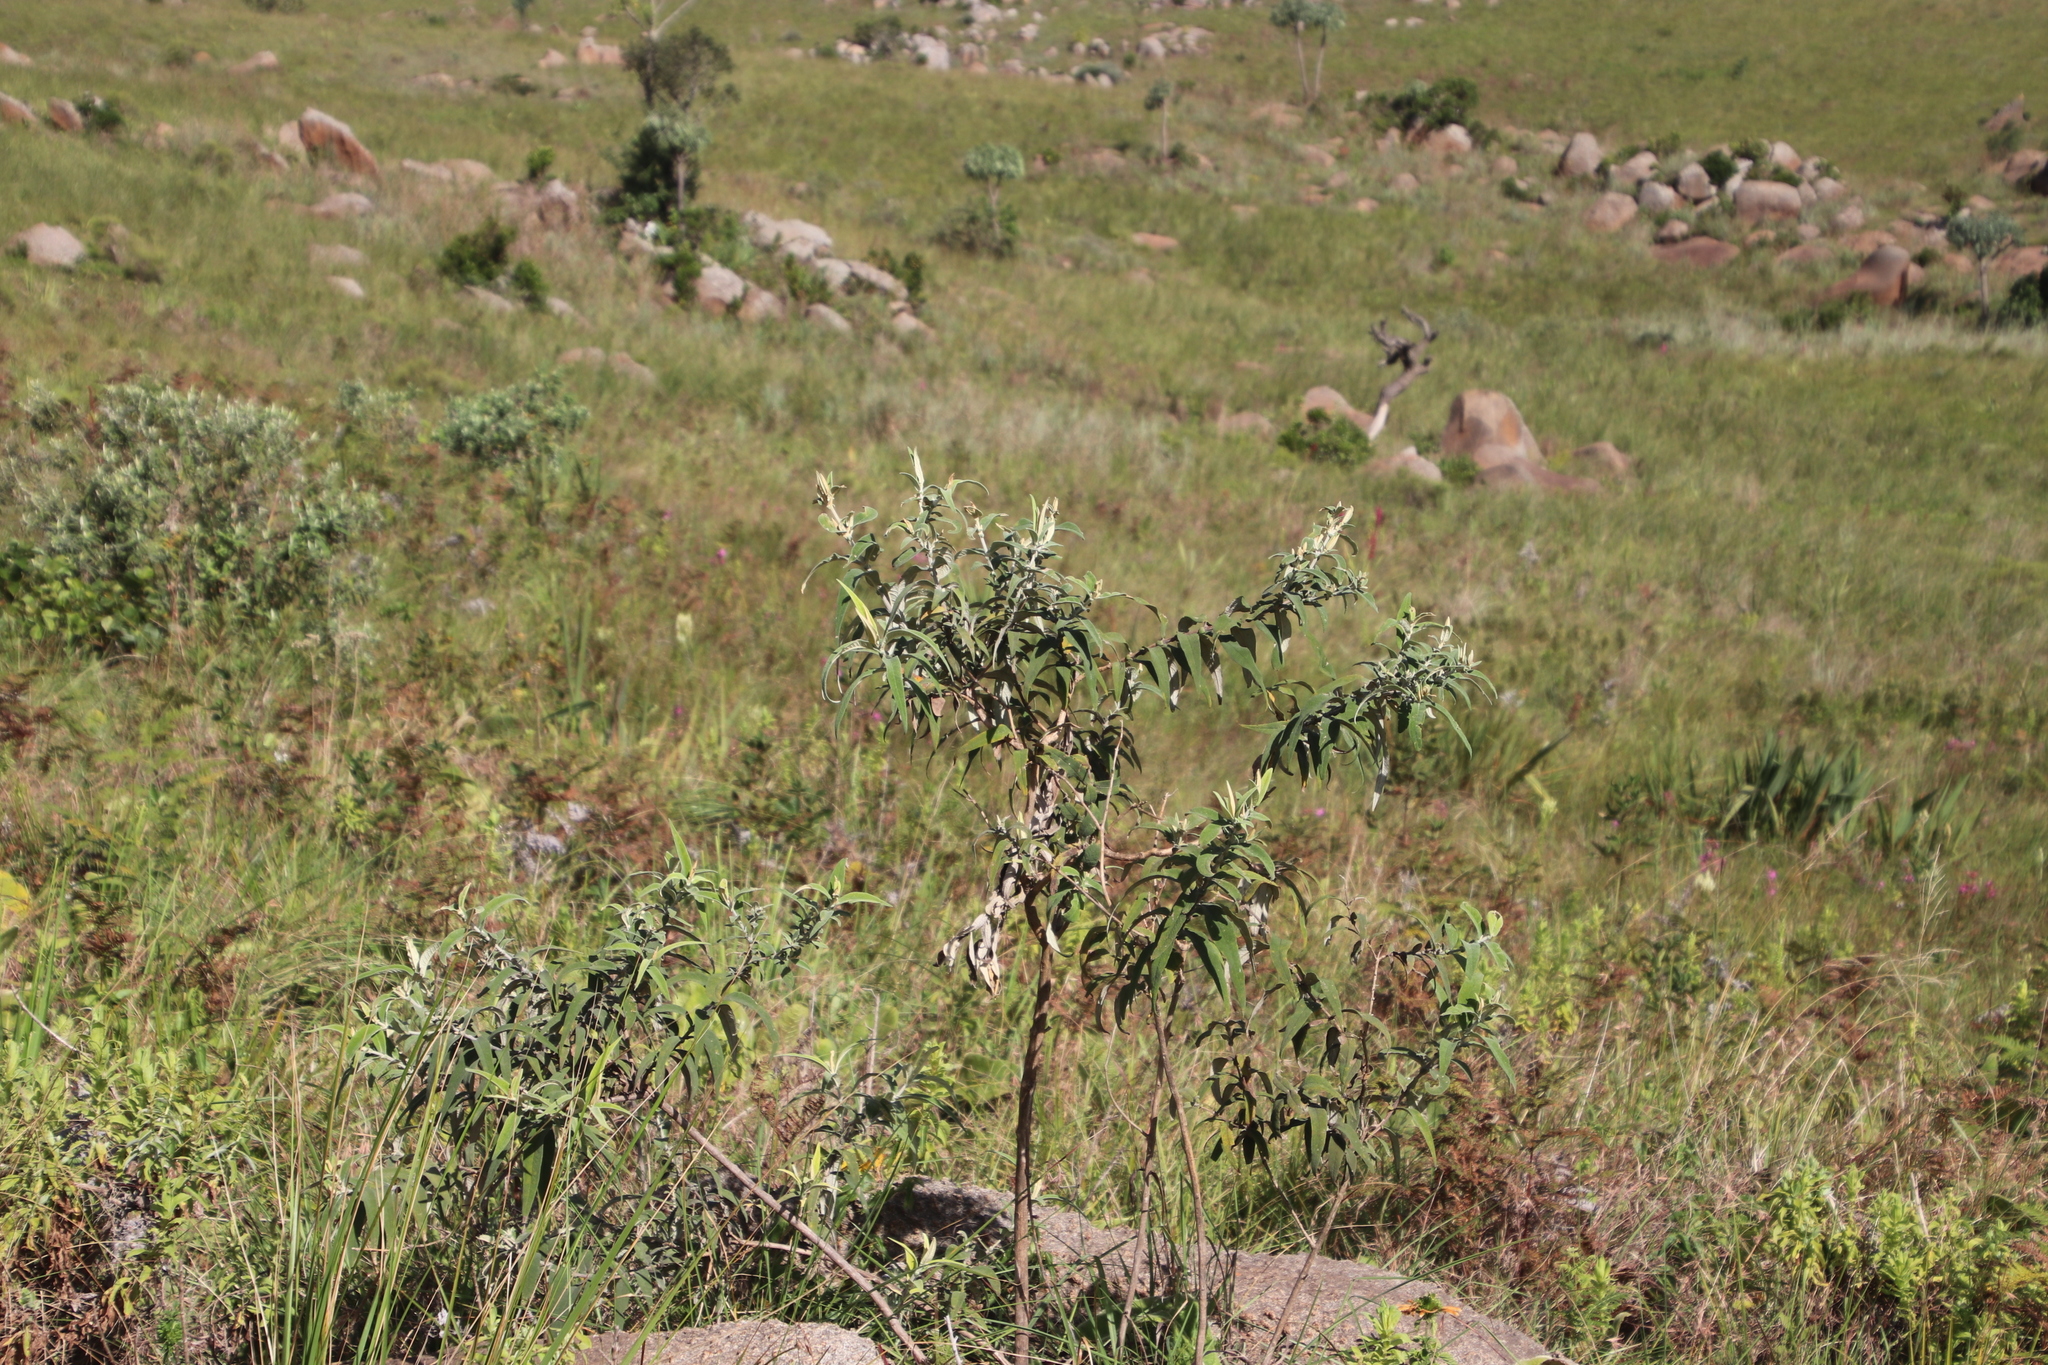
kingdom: Plantae
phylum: Tracheophyta
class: Magnoliopsida
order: Lamiales
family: Scrophulariaceae
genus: Buddleja
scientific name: Buddleja salviifolia
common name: Sagewood
